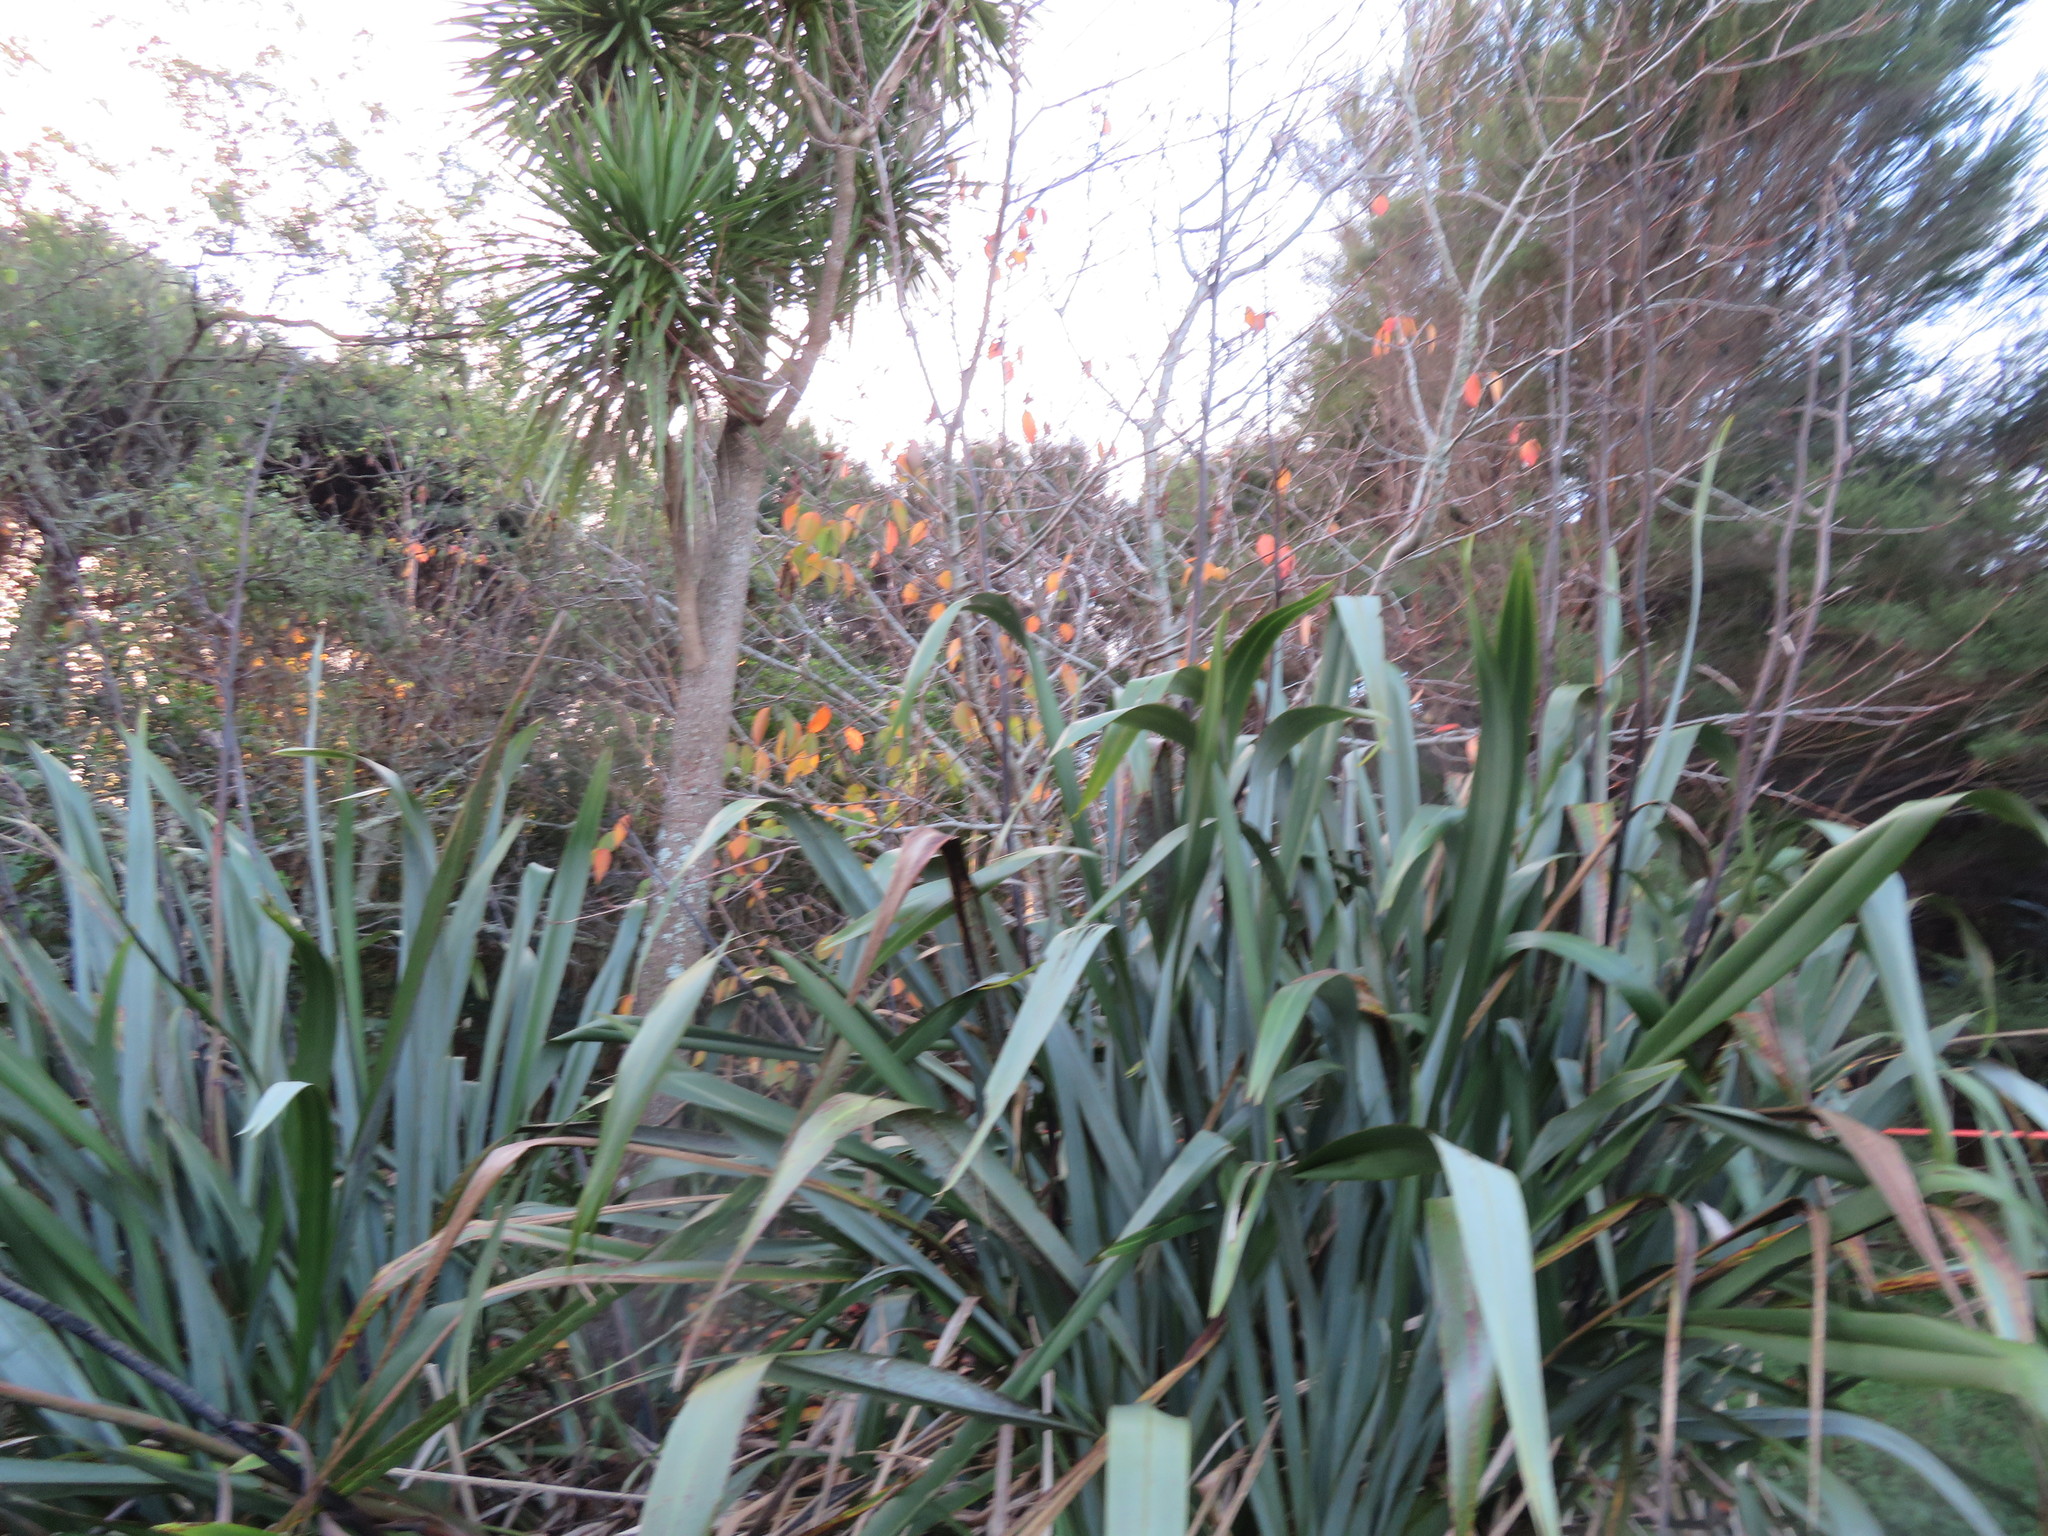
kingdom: Plantae
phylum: Tracheophyta
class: Liliopsida
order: Asparagales
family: Asparagaceae
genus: Cordyline
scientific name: Cordyline australis
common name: Cabbage-palm
